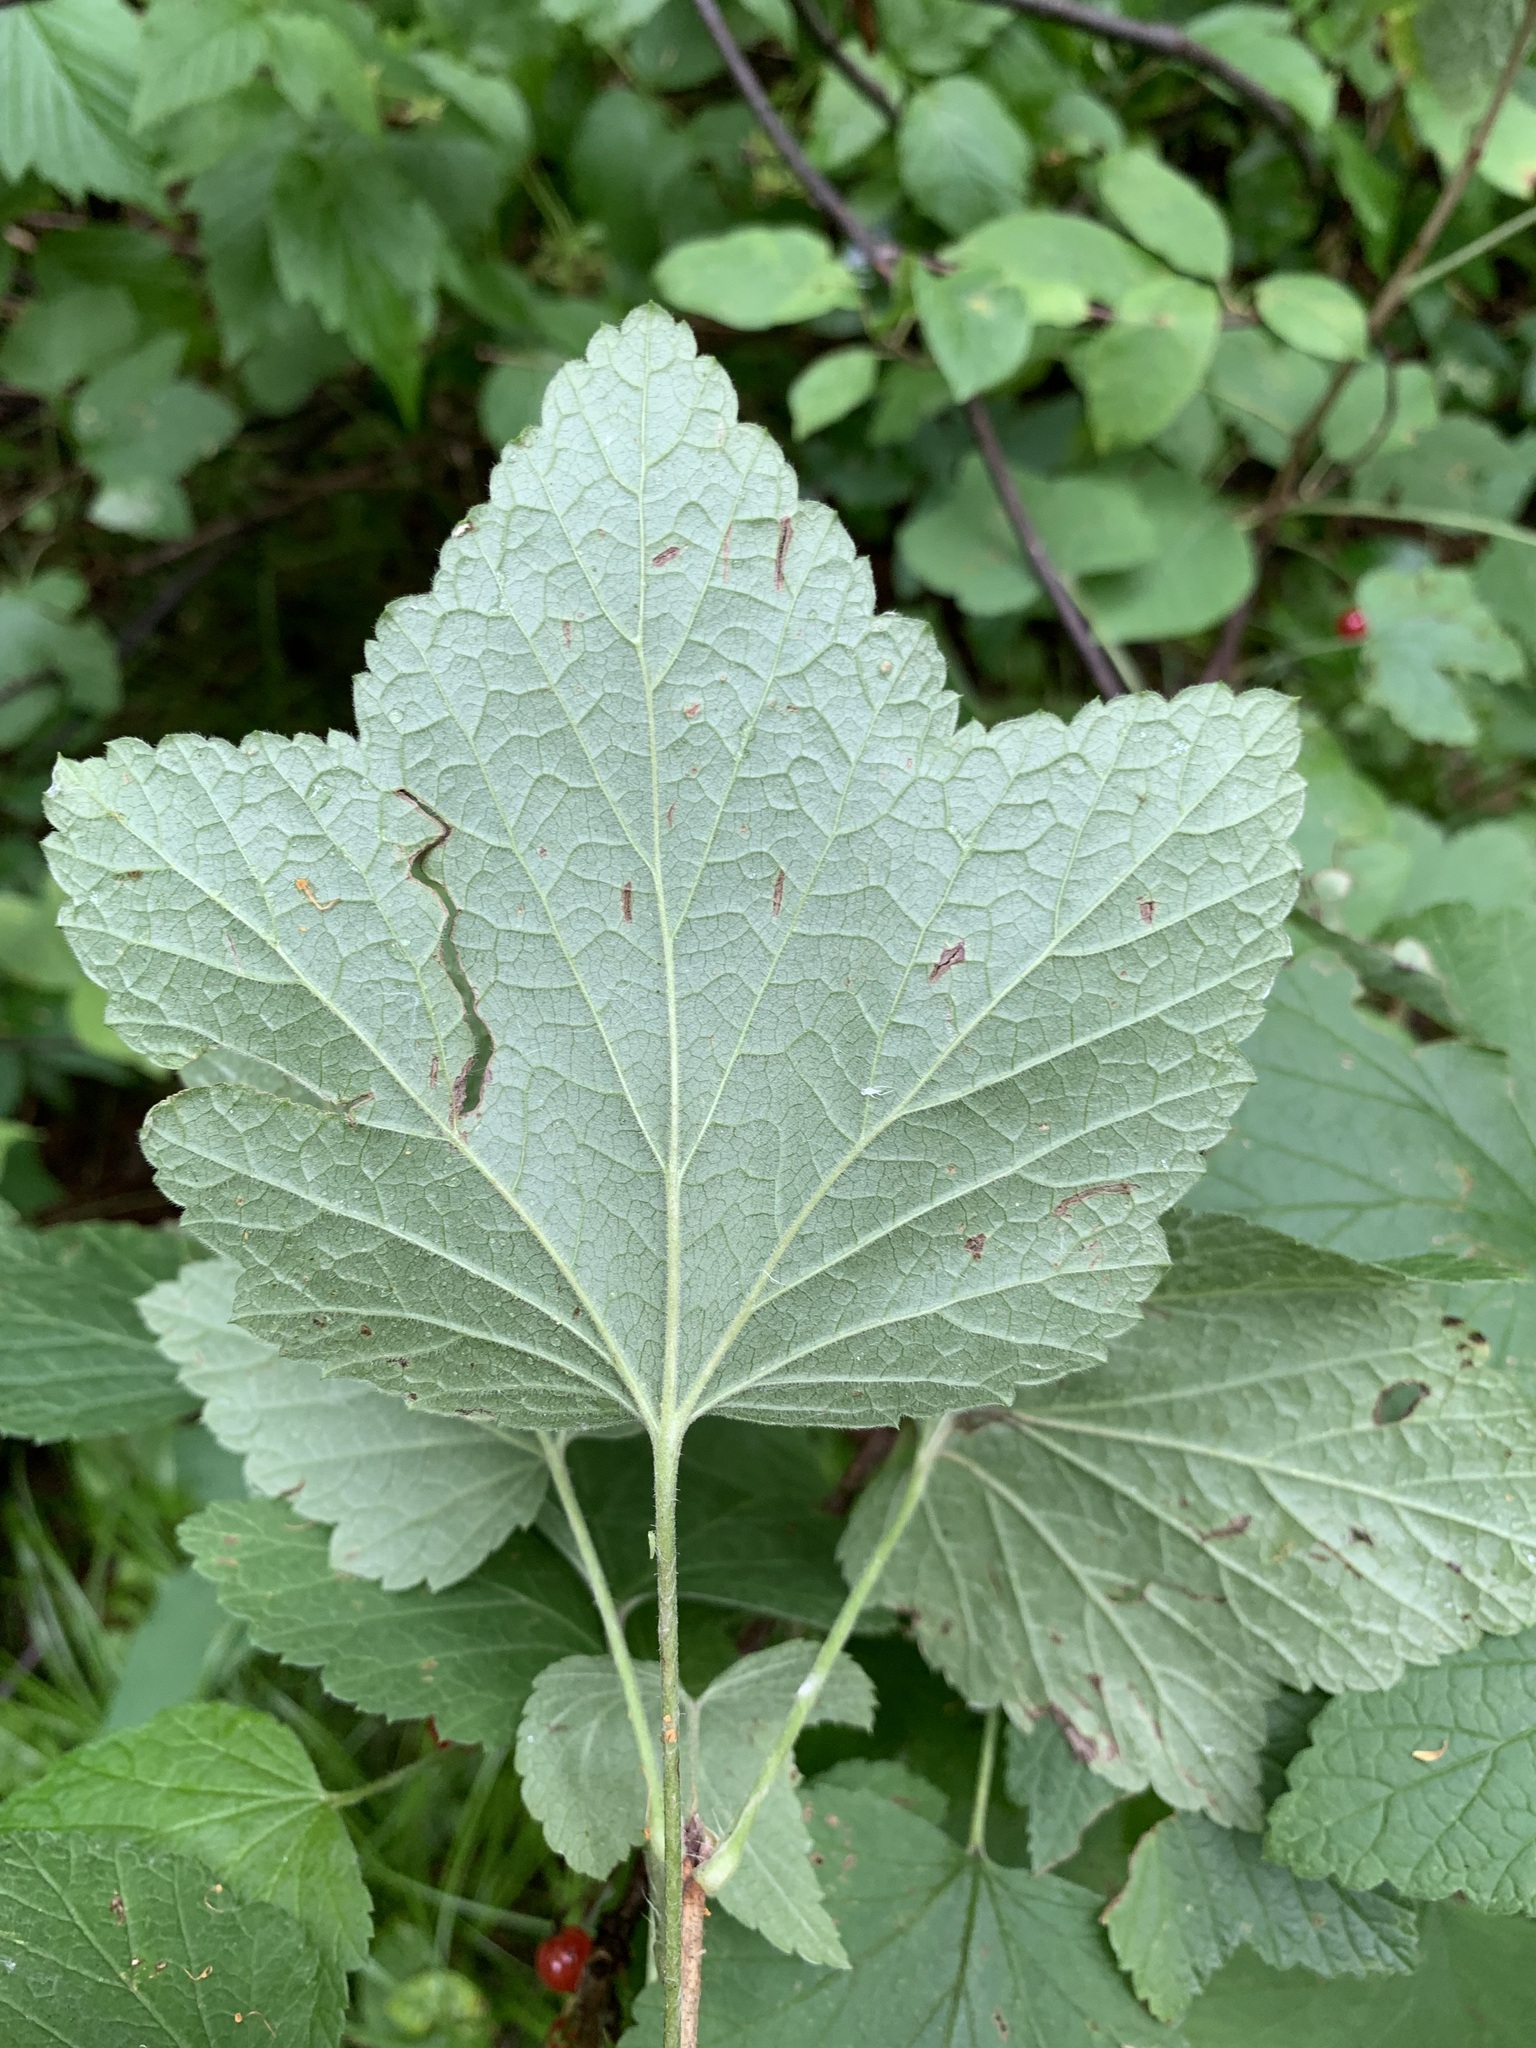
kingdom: Plantae
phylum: Tracheophyta
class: Magnoliopsida
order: Saxifragales
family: Grossulariaceae
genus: Ribes
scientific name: Ribes spicatum
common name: Downy currant
